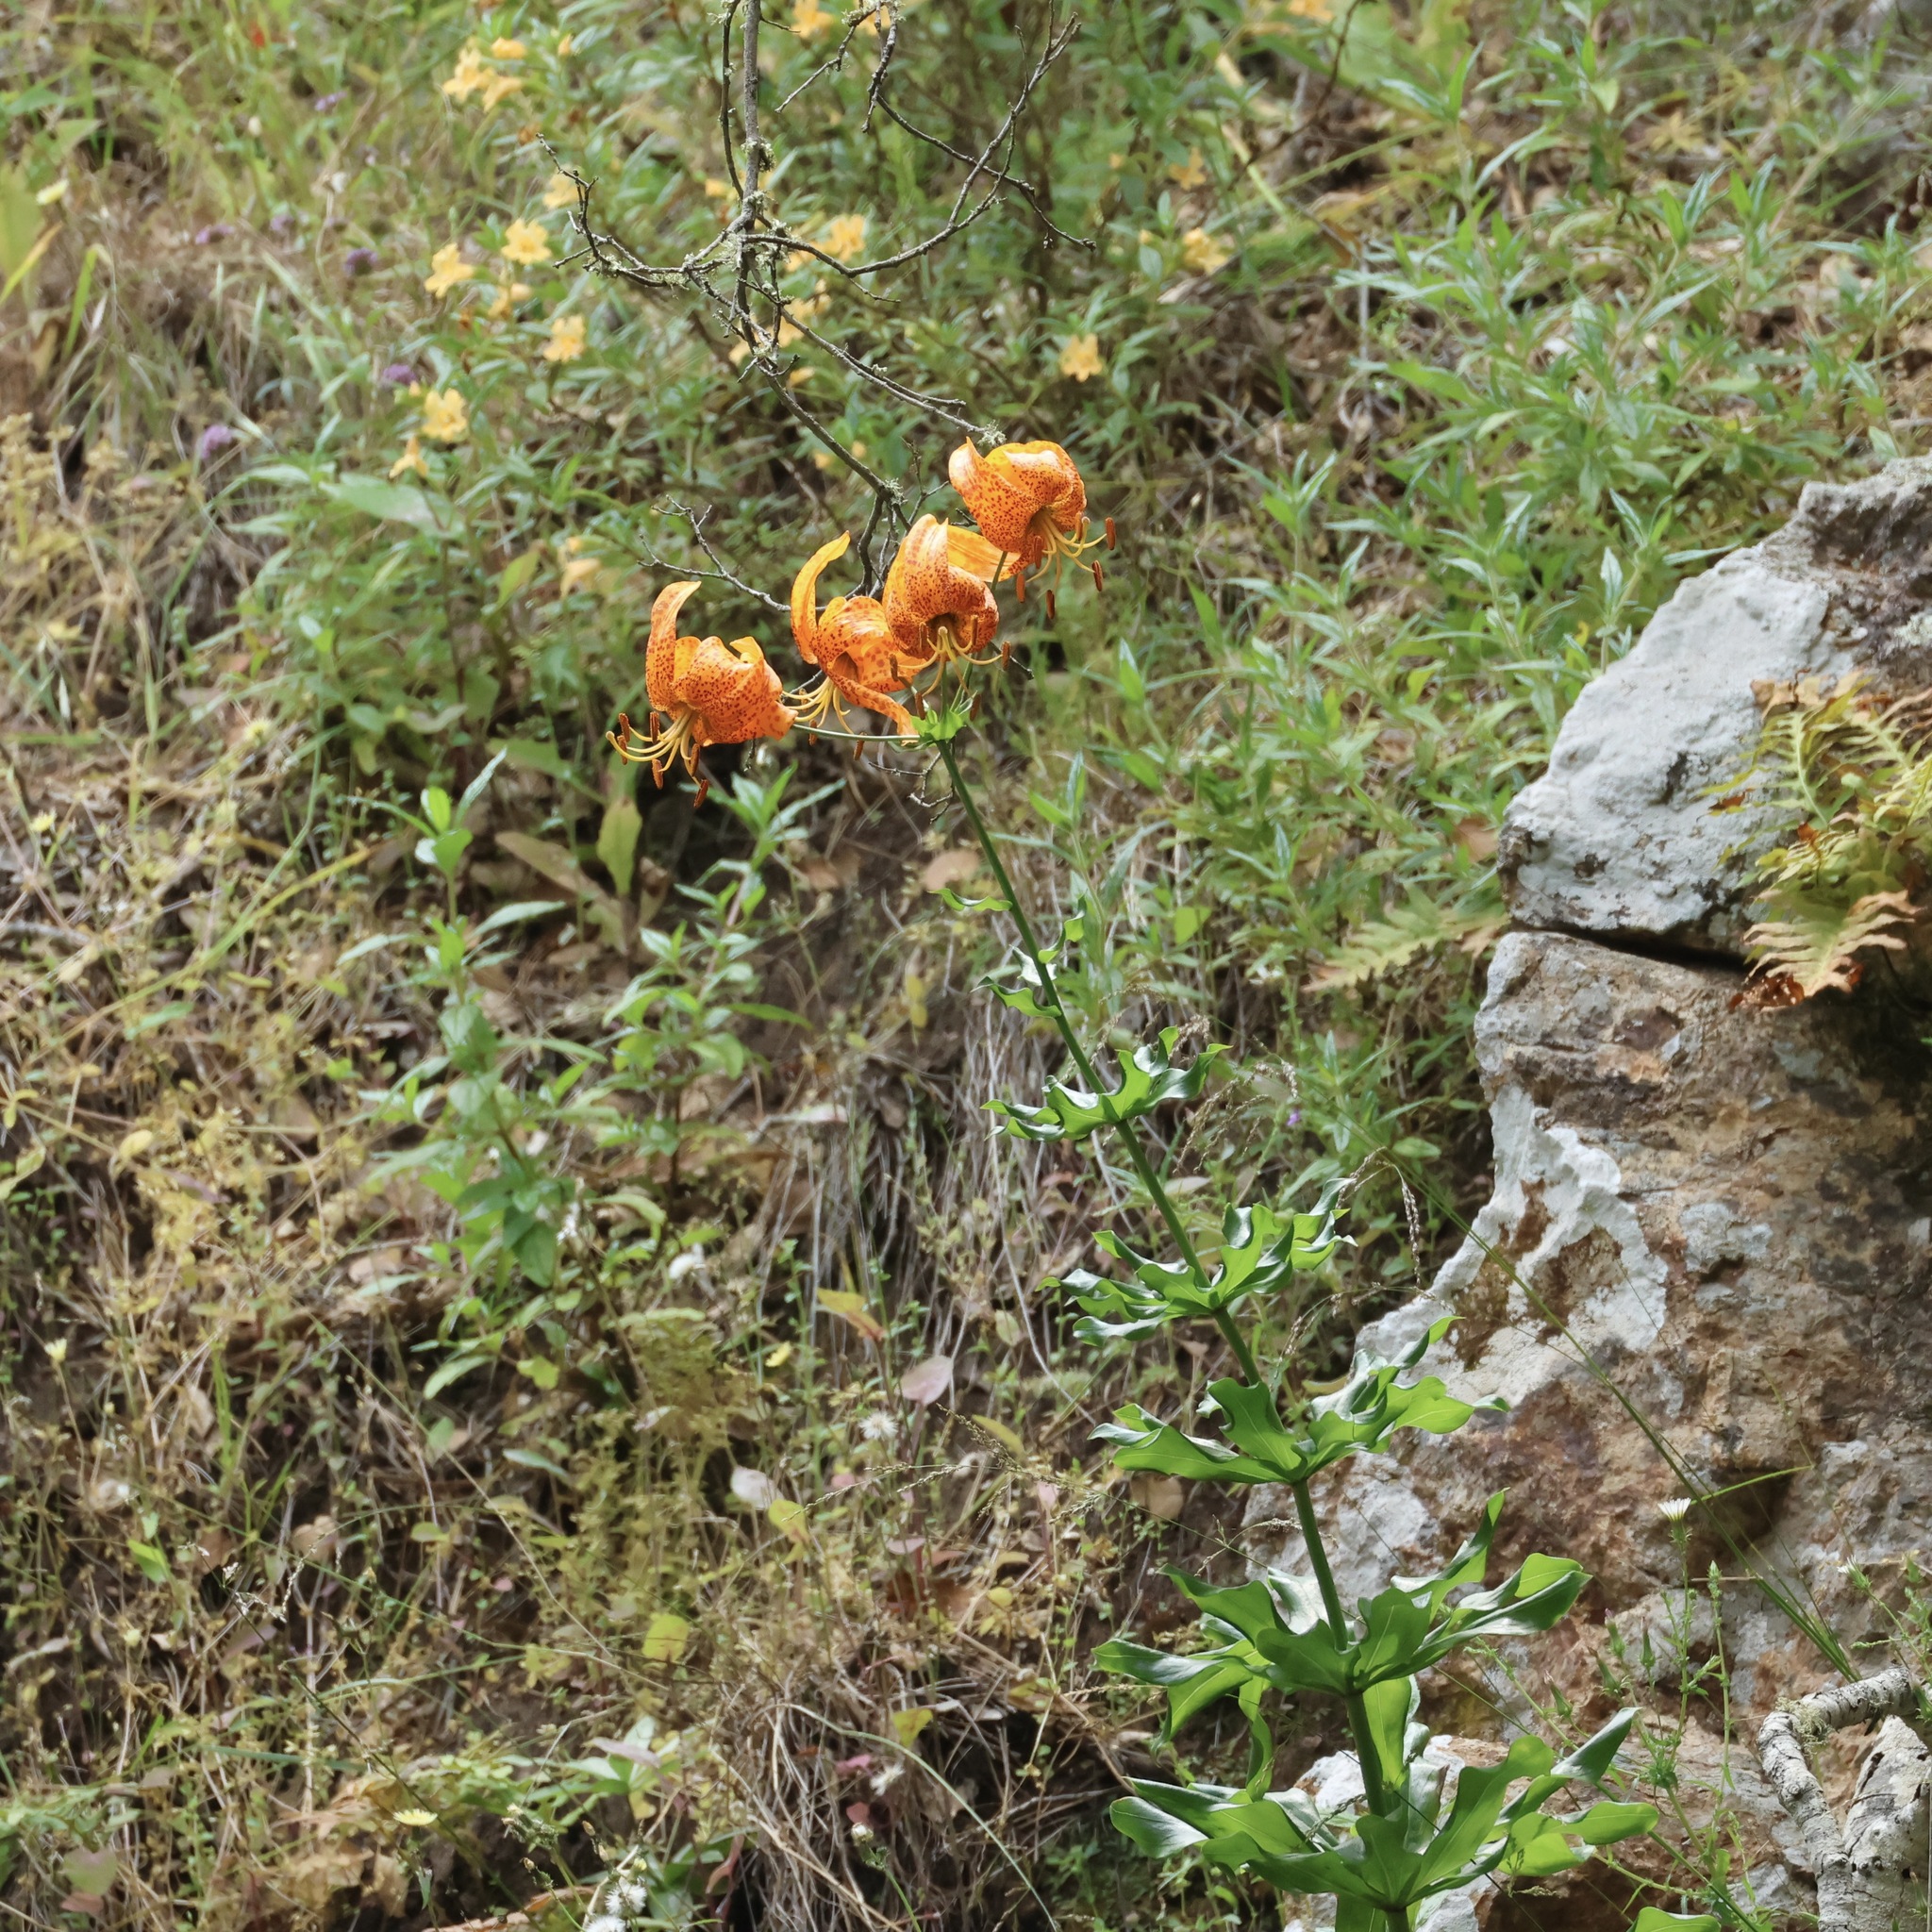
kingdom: Plantae
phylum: Tracheophyta
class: Liliopsida
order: Liliales
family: Liliaceae
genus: Lilium
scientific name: Lilium humboldtii
